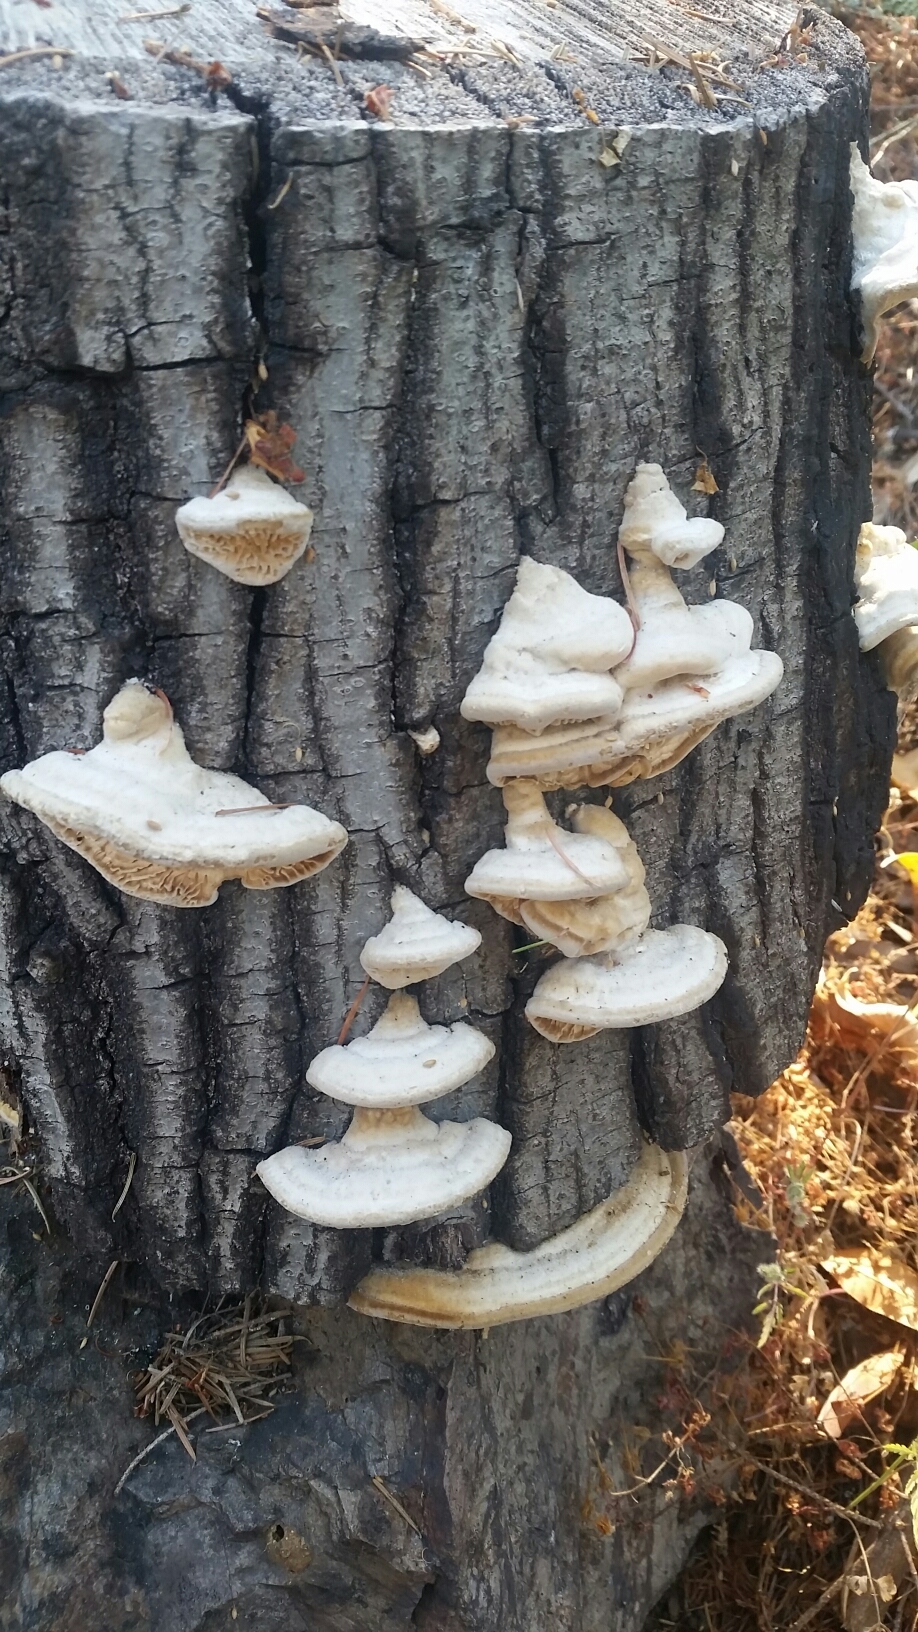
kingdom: Fungi
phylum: Basidiomycota
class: Agaricomycetes
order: Polyporales
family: Fomitopsidaceae
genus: Fomitopsis
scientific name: Fomitopsis
